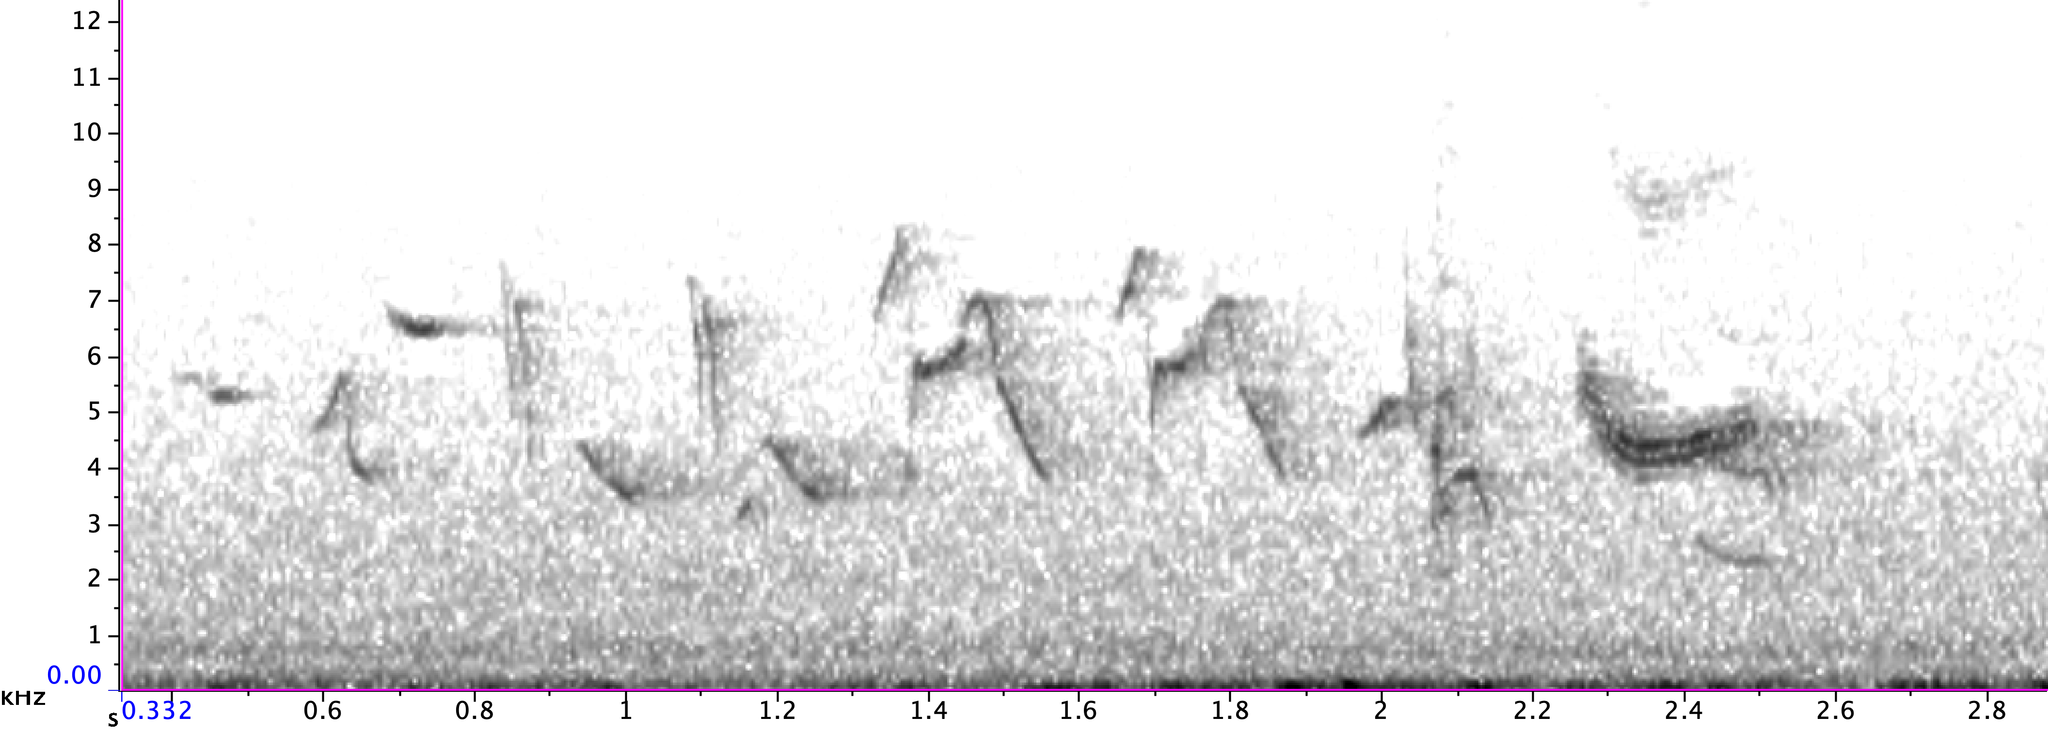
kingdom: Animalia
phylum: Chordata
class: Aves
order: Passeriformes
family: Cardinalidae
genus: Passerina
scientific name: Passerina cyanea
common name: Indigo bunting
